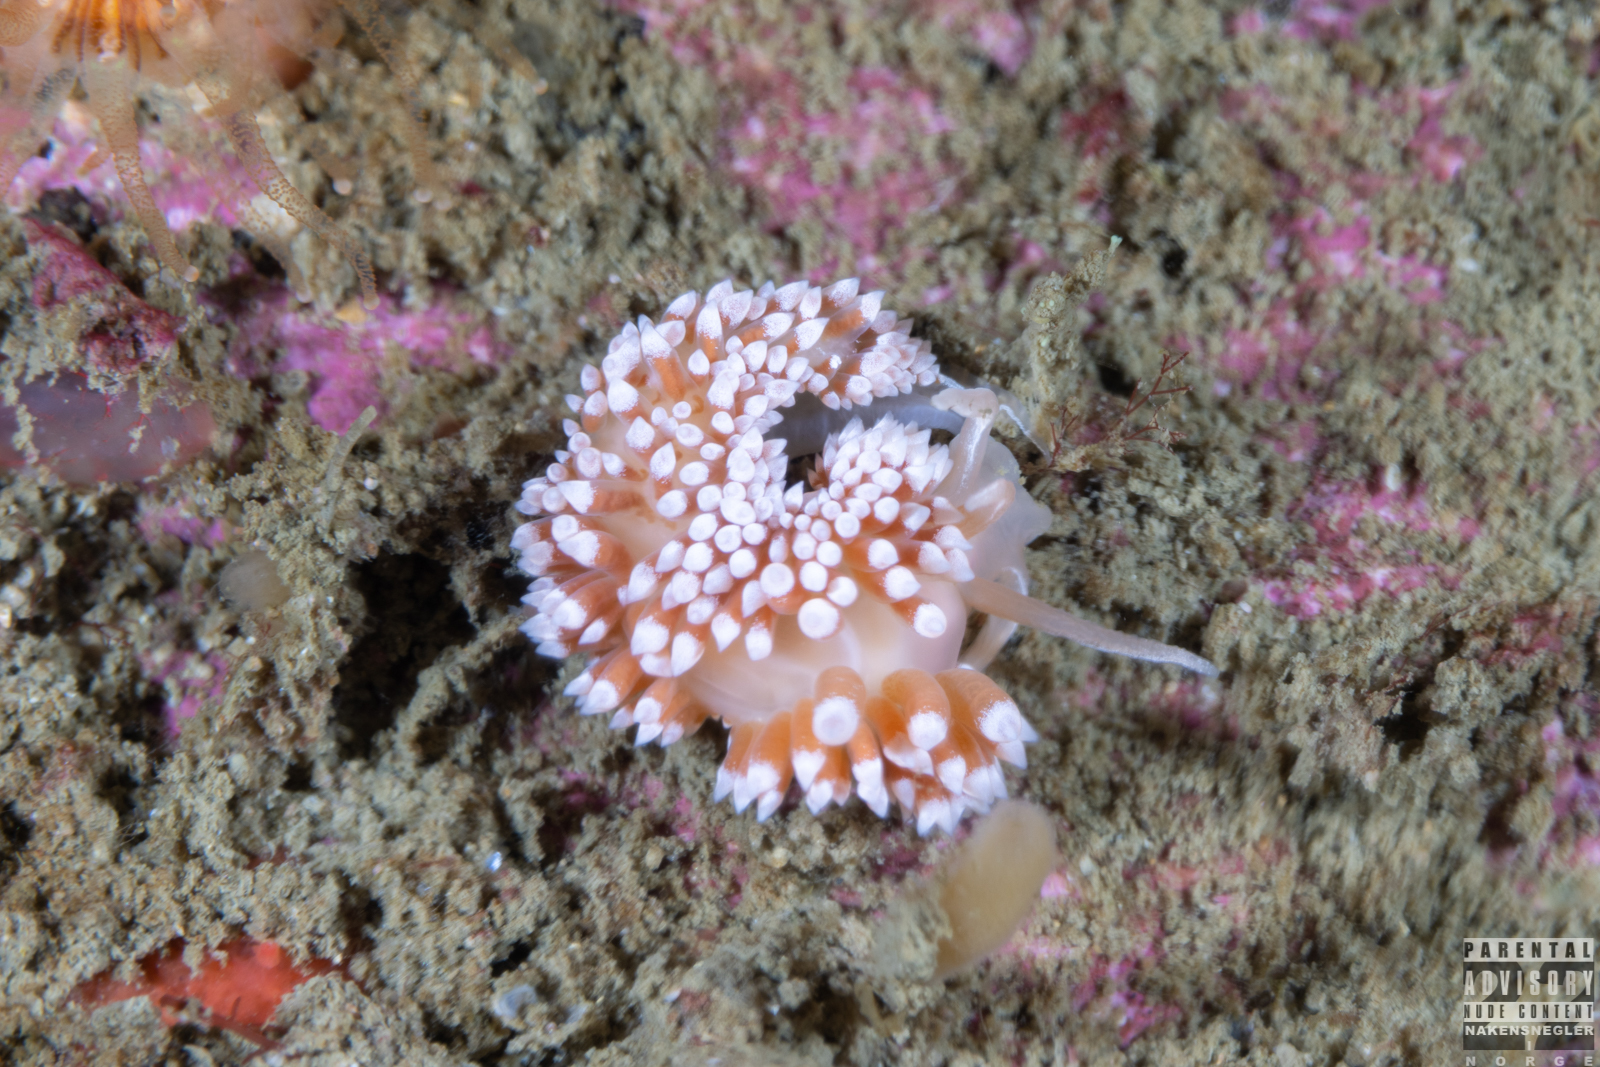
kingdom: Animalia
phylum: Mollusca
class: Gastropoda
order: Nudibranchia
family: Coryphellidae
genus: Coryphella
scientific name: Coryphella verrucosa
